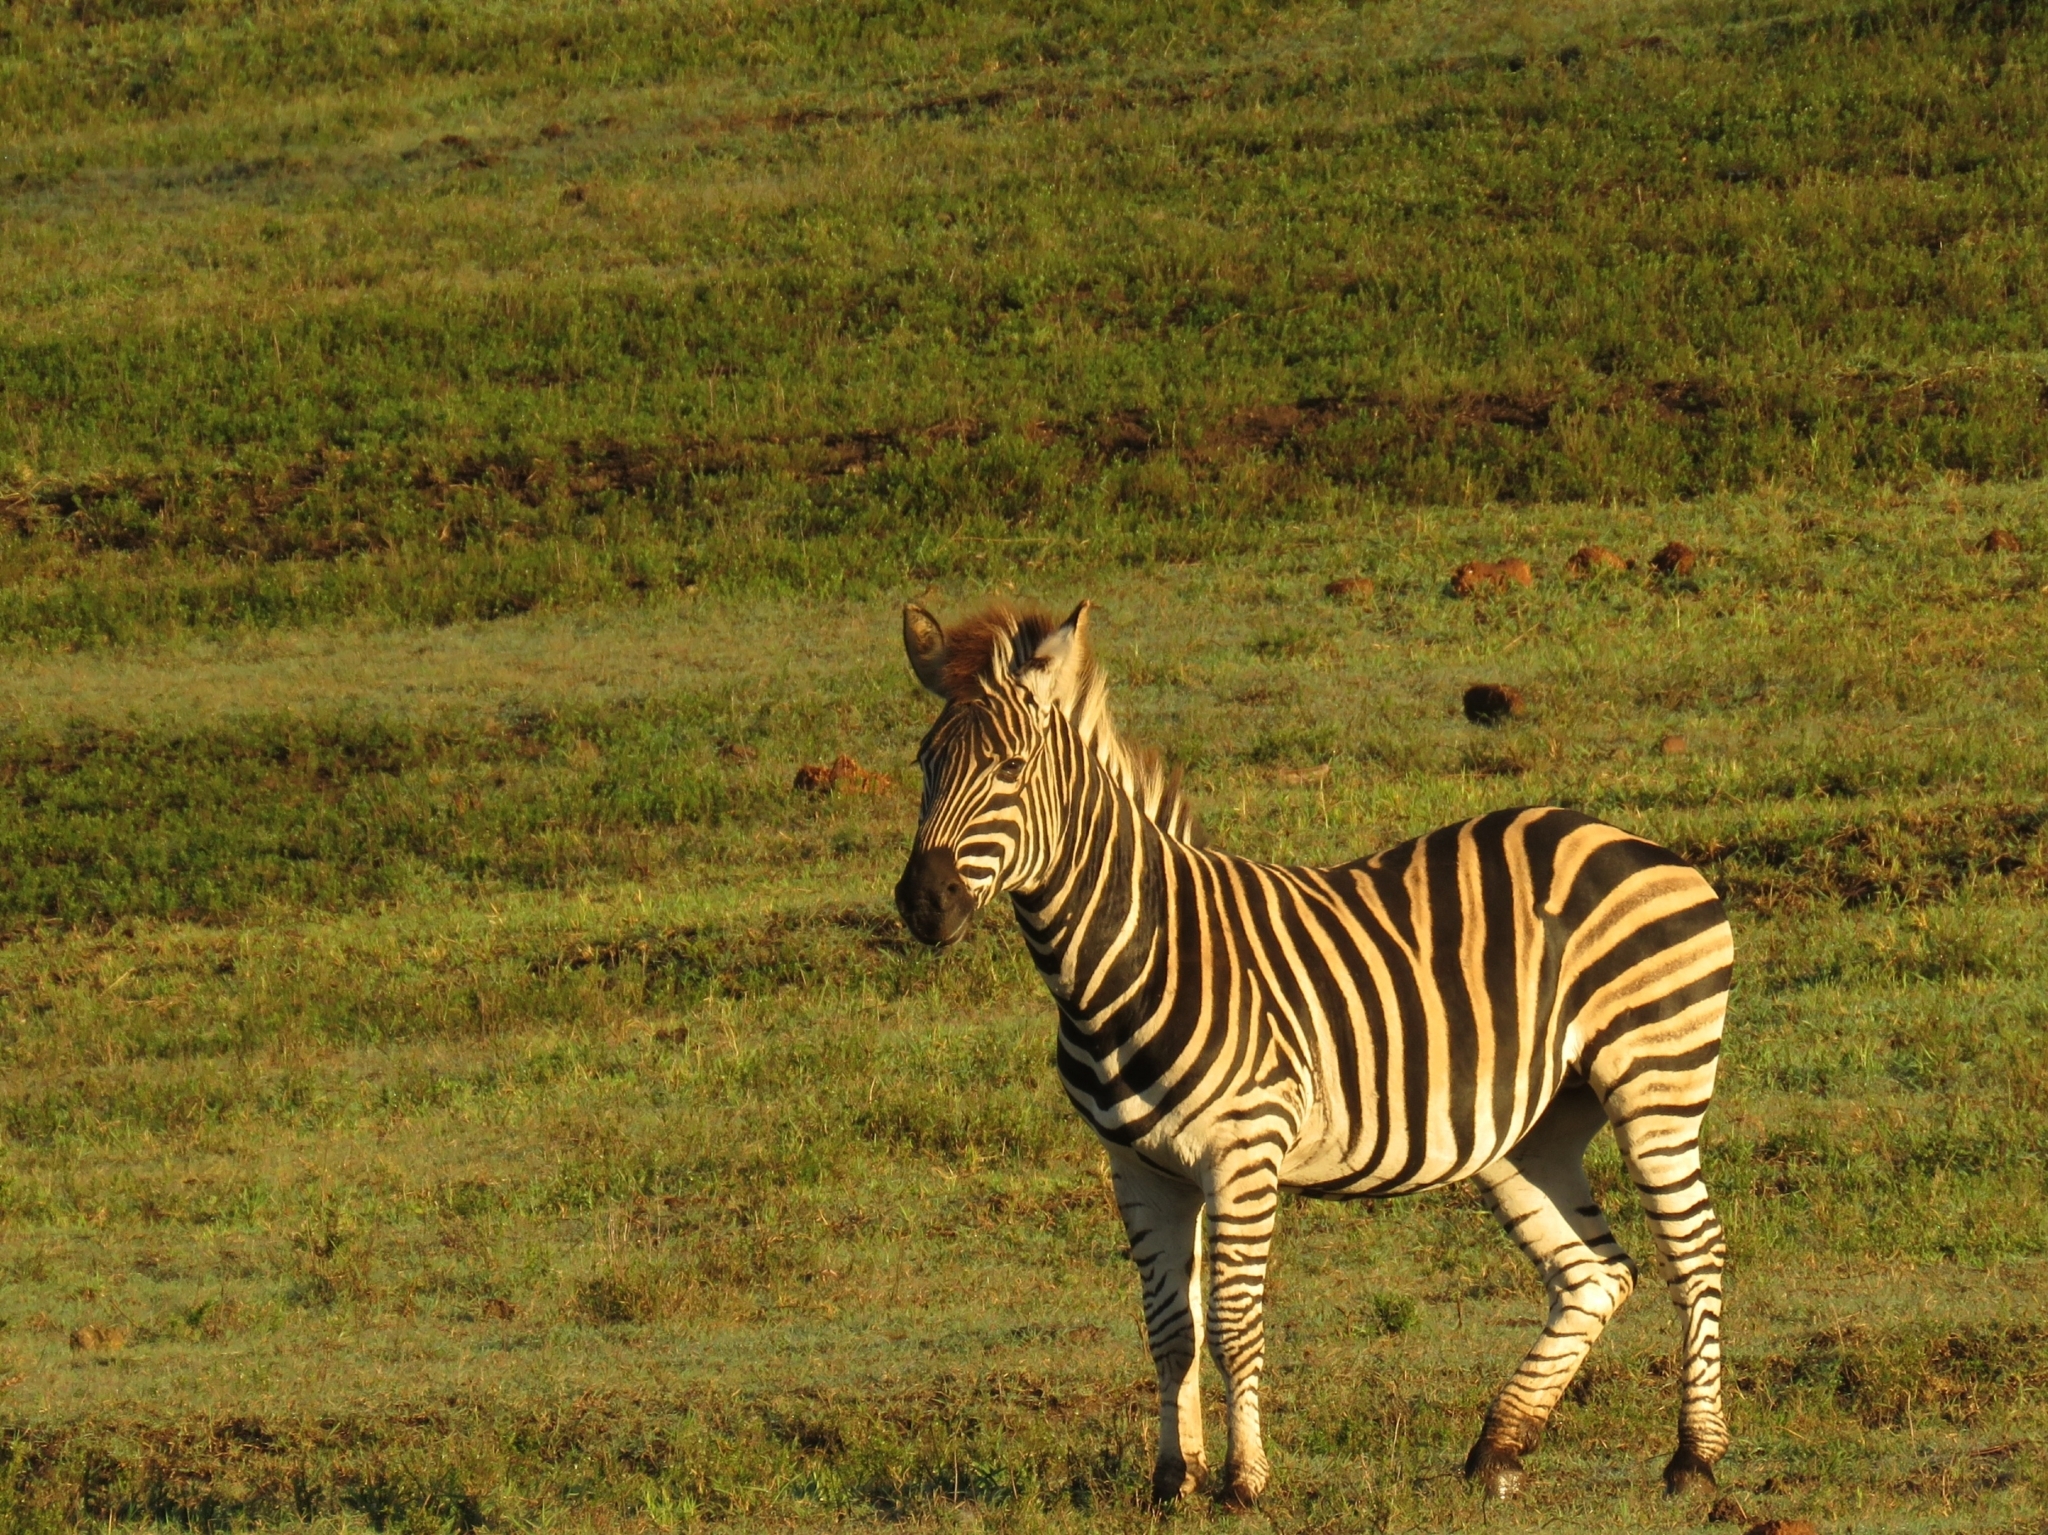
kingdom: Animalia
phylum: Chordata
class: Mammalia
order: Perissodactyla
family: Equidae
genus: Equus
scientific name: Equus quagga
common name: Plains zebra
